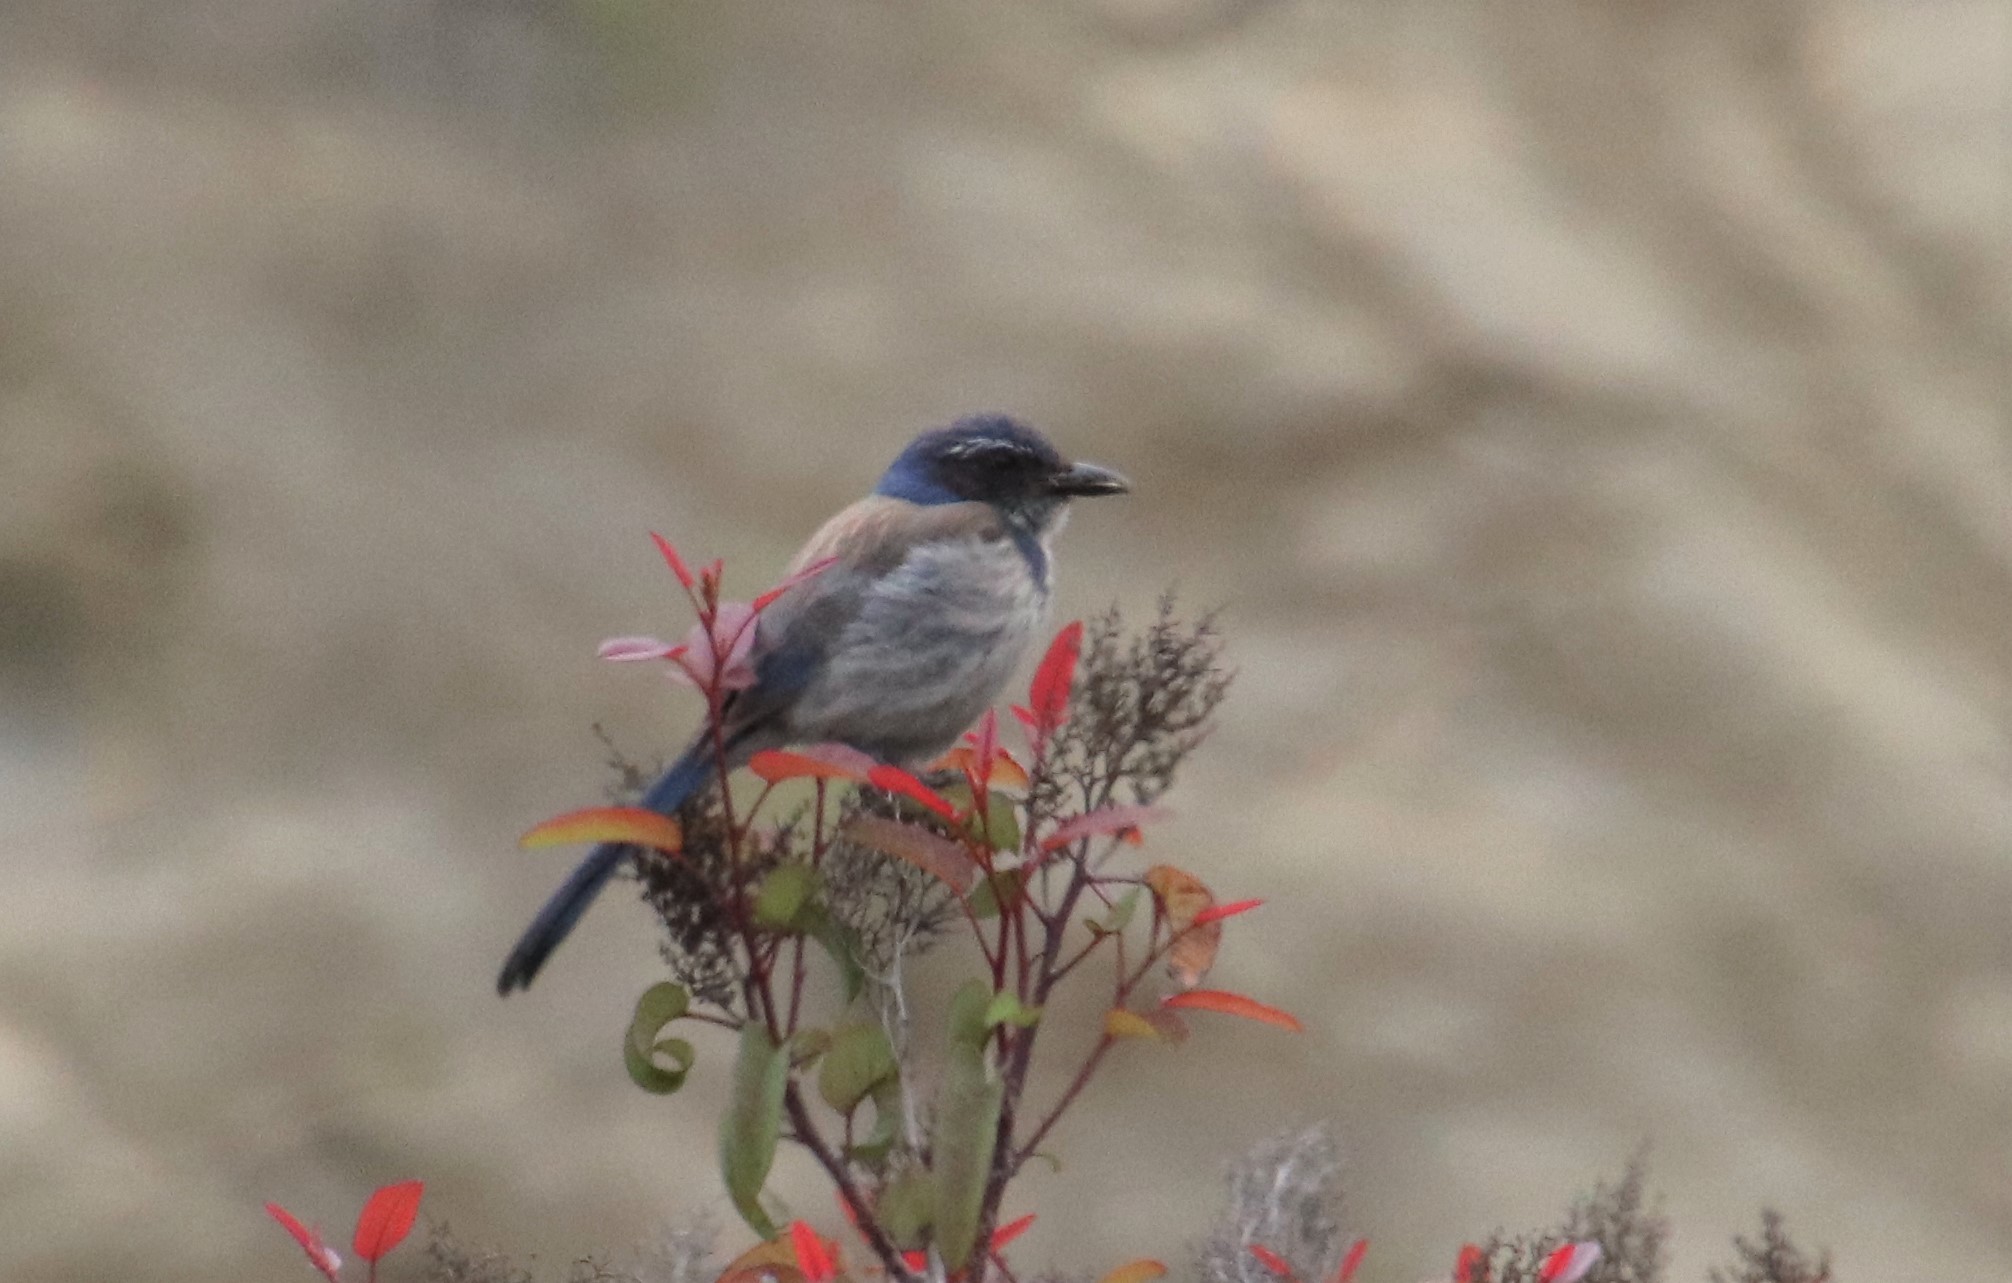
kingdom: Animalia
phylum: Chordata
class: Aves
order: Passeriformes
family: Corvidae
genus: Aphelocoma
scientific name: Aphelocoma californica
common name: California scrub-jay
